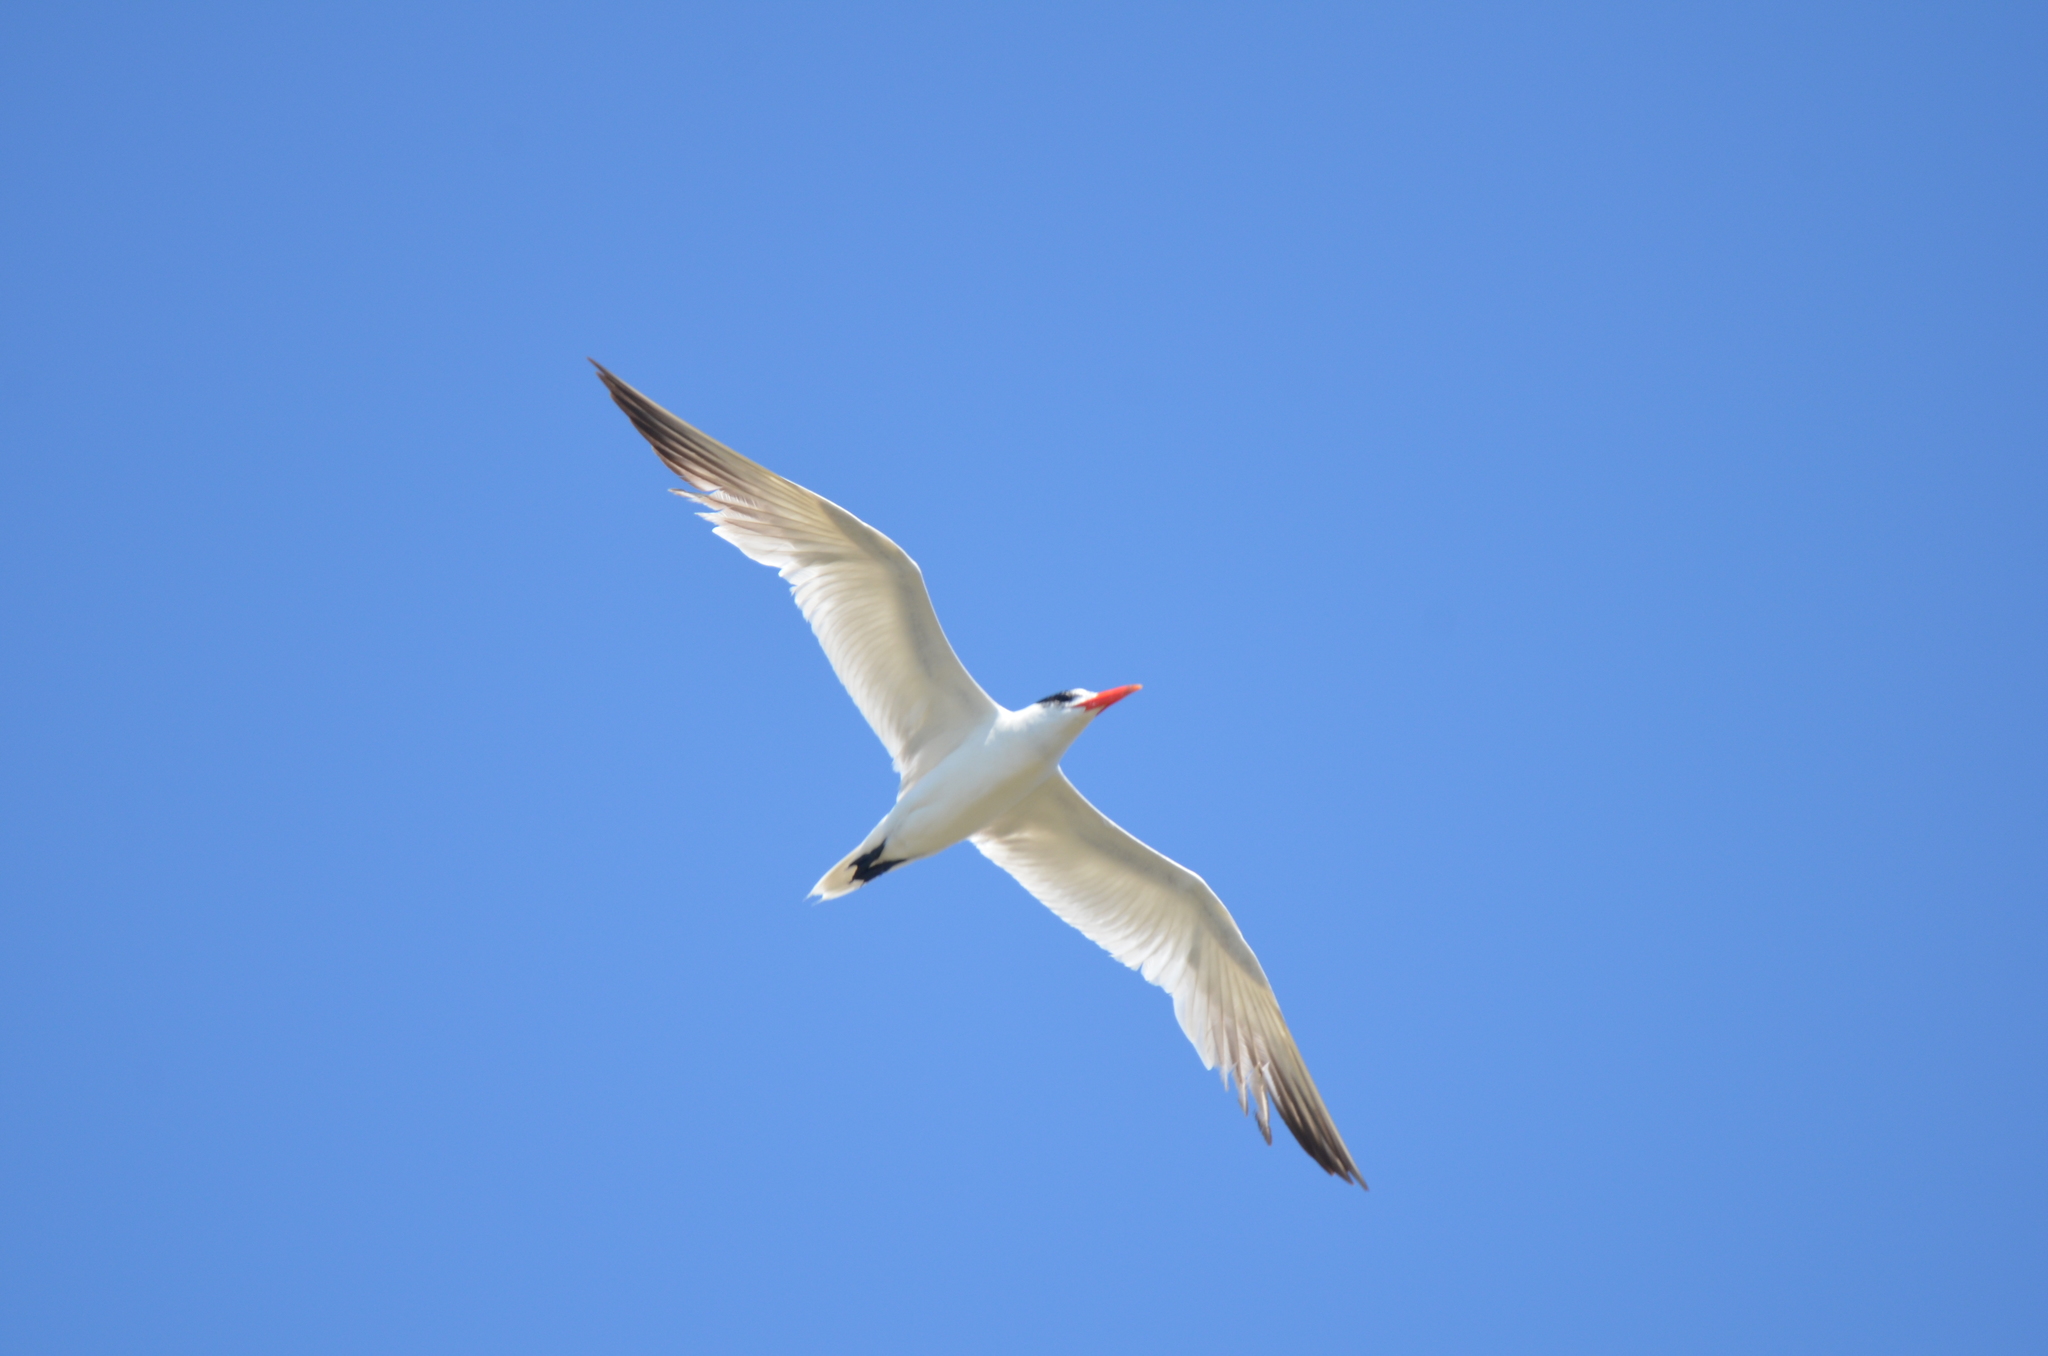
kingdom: Animalia
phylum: Chordata
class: Aves
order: Charadriiformes
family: Laridae
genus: Hydroprogne
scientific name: Hydroprogne caspia
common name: Caspian tern
